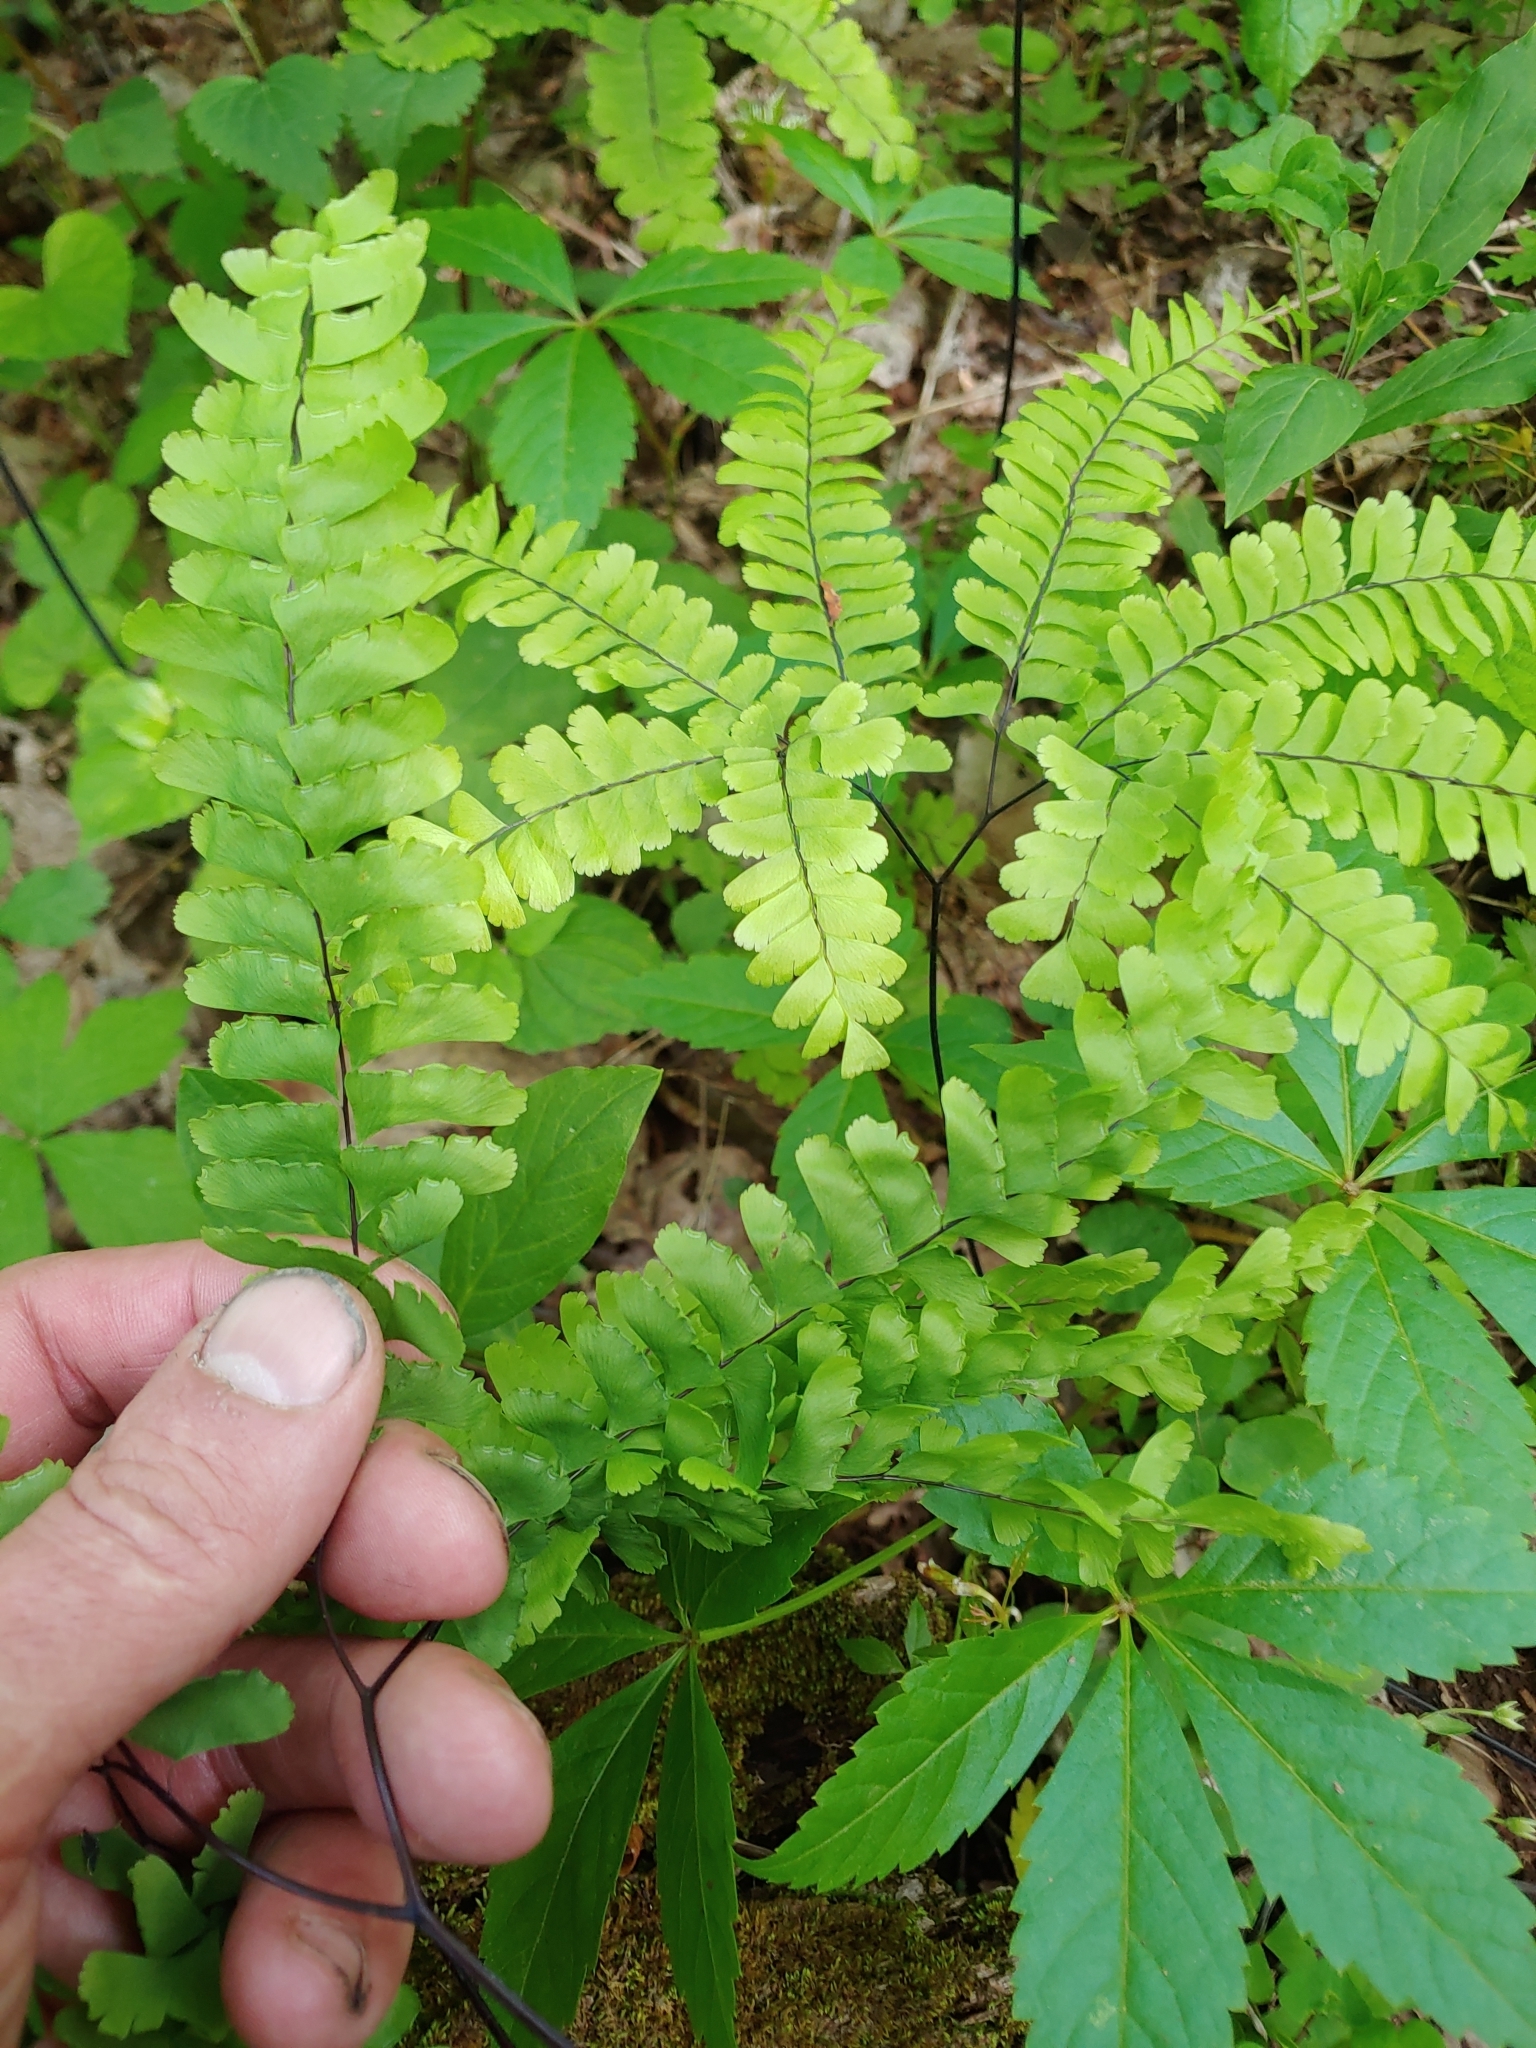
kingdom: Plantae
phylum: Tracheophyta
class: Polypodiopsida
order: Polypodiales
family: Pteridaceae
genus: Adiantum
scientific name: Adiantum pedatum
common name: Five-finger fern
